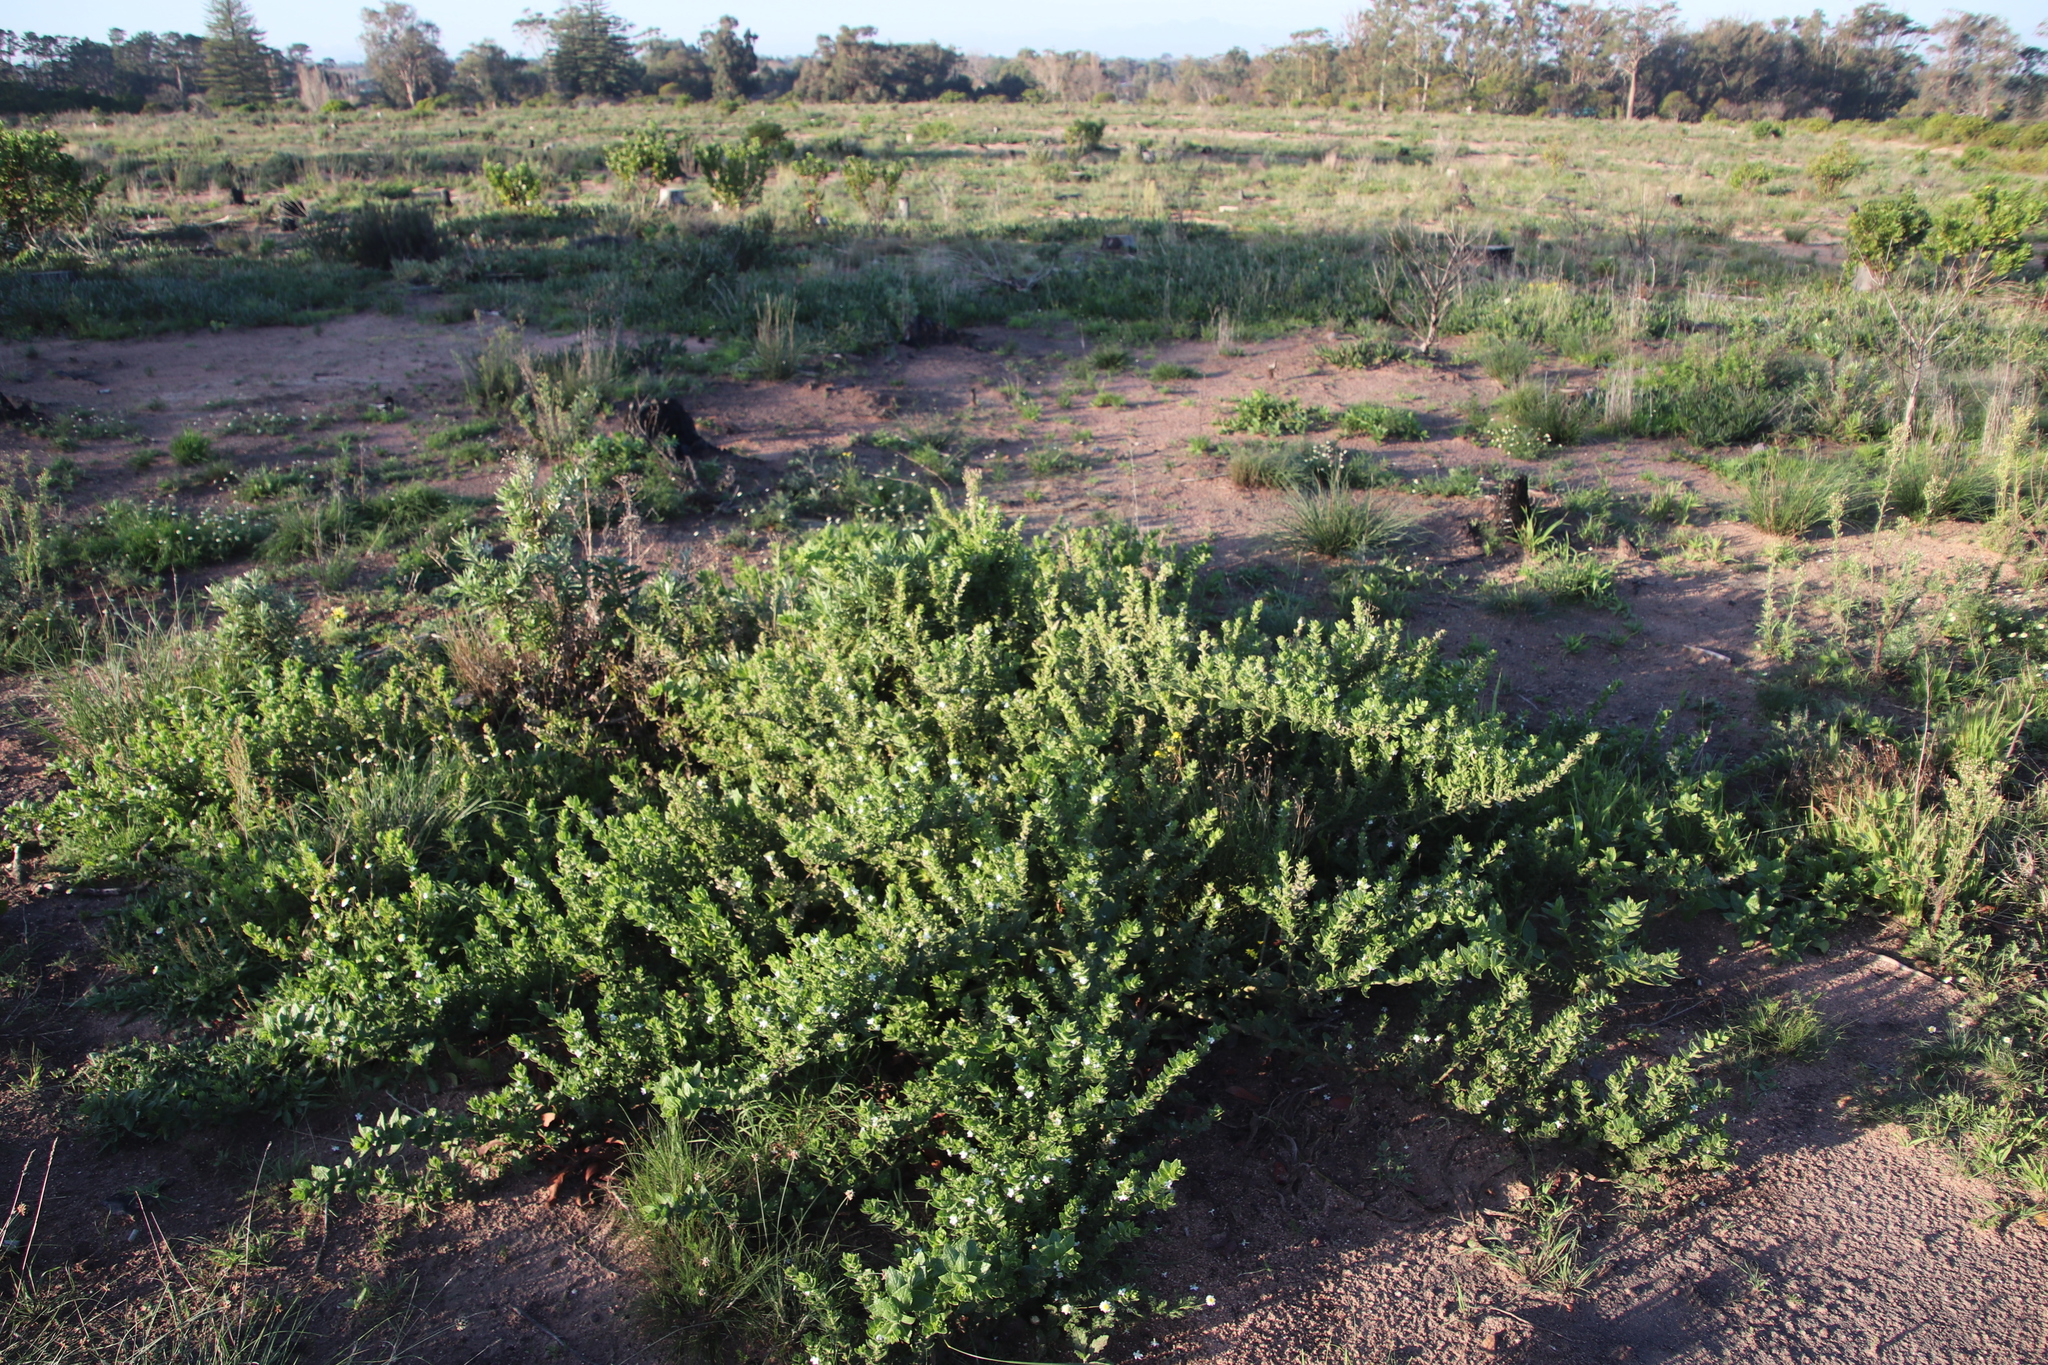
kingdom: Plantae
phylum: Tracheophyta
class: Magnoliopsida
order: Lamiales
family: Scrophulariaceae
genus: Oftia
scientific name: Oftia africana
